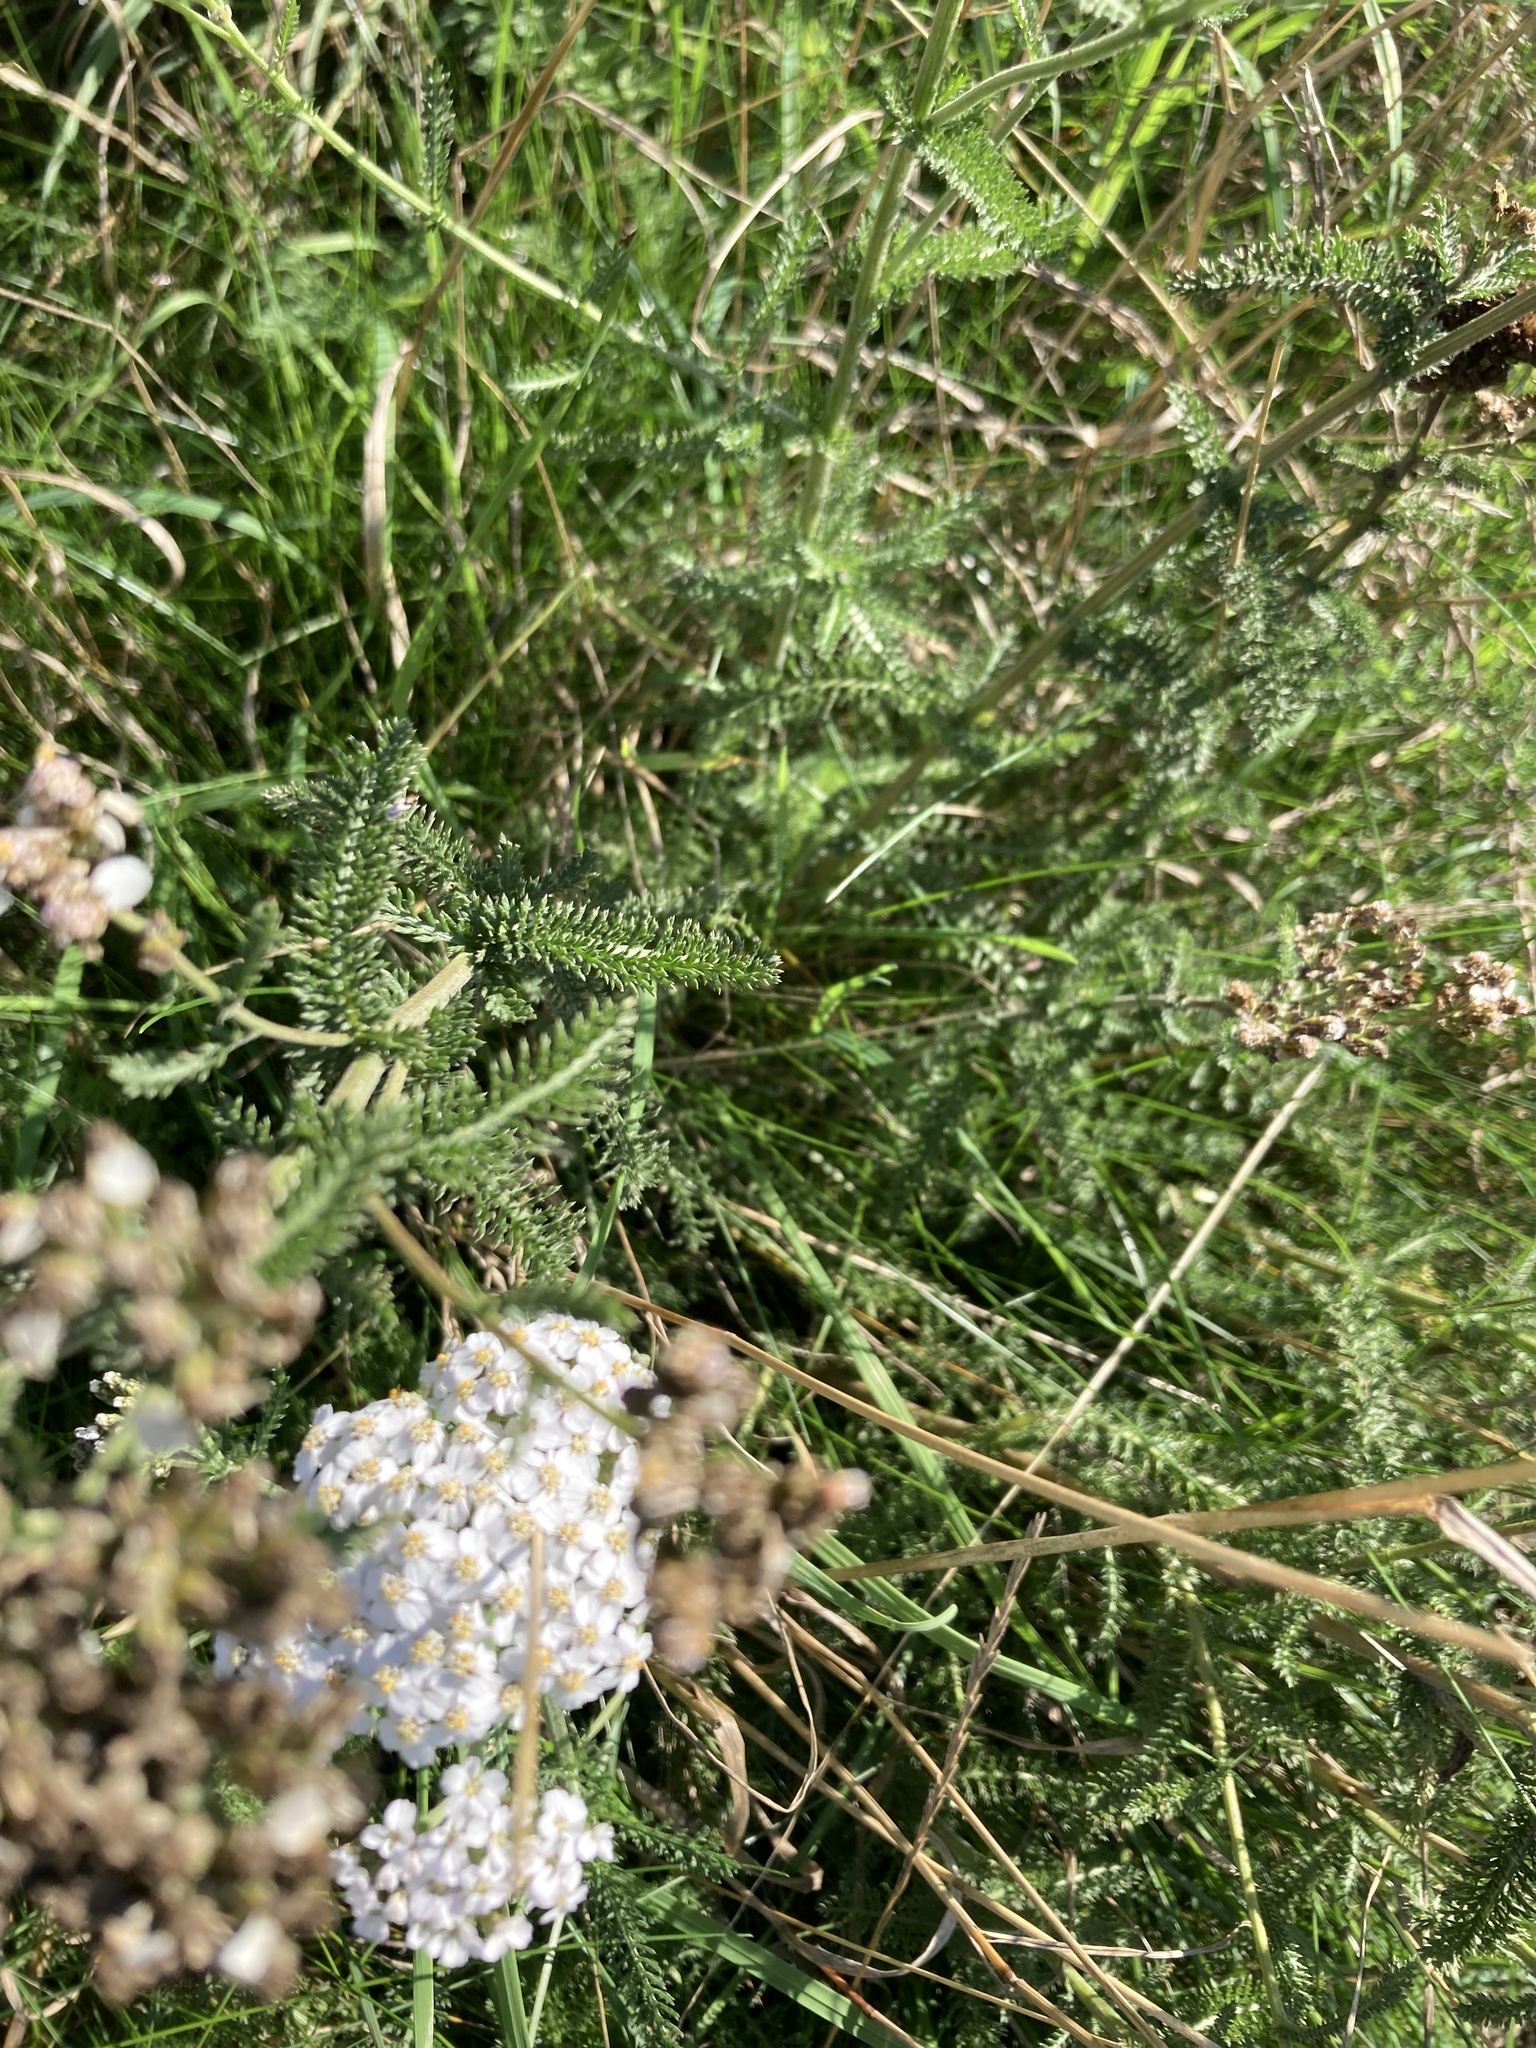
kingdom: Plantae
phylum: Tracheophyta
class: Magnoliopsida
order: Asterales
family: Asteraceae
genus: Achillea
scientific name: Achillea millefolium
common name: Yarrow
